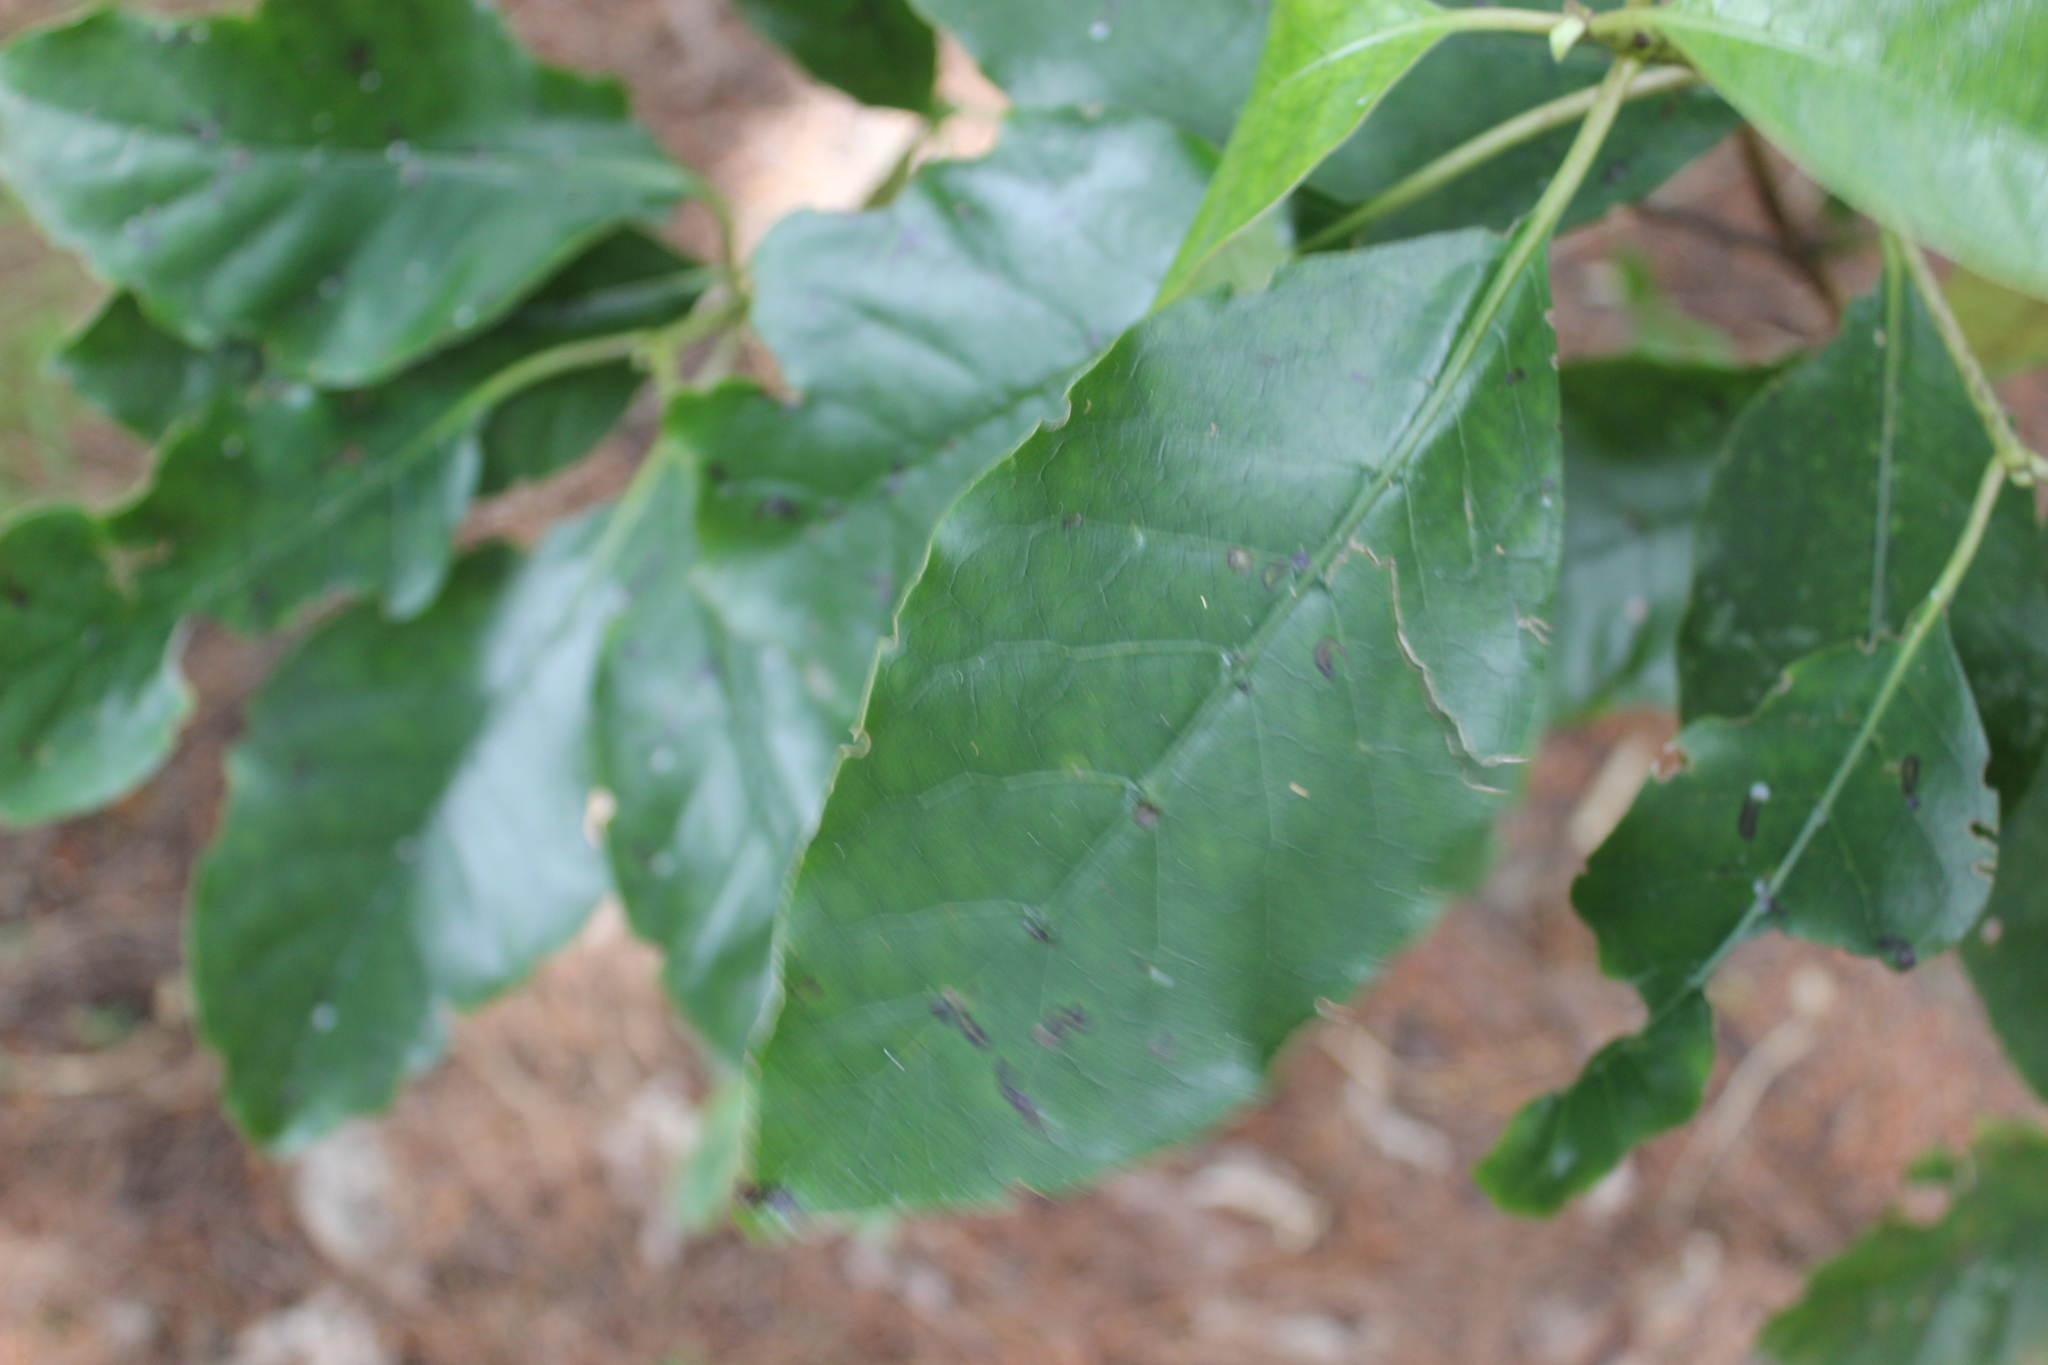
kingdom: Plantae
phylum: Tracheophyta
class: Magnoliopsida
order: Gentianales
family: Rubiaceae
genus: Coprosma
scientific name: Coprosma autumnalis
